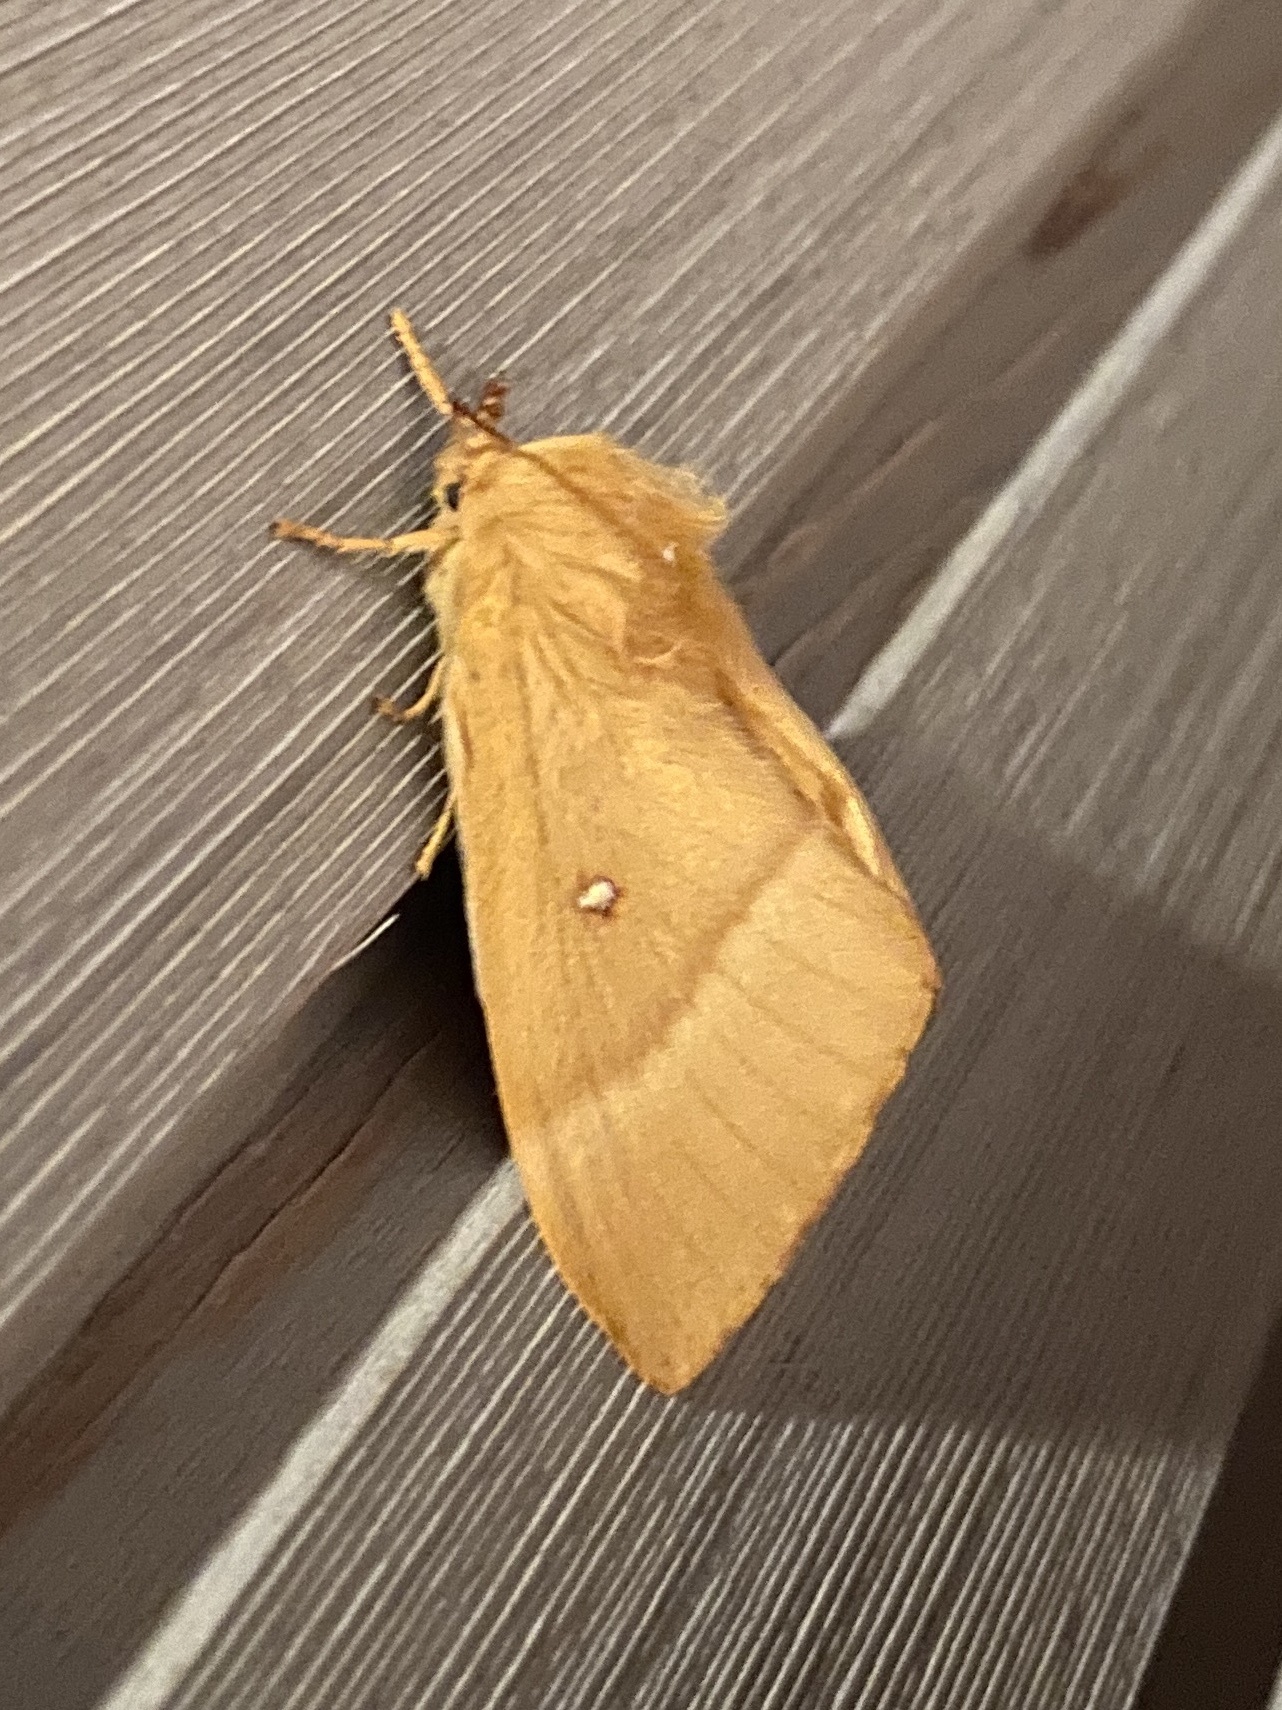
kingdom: Animalia
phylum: Arthropoda
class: Insecta
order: Lepidoptera
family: Lasiocampidae
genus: Lasiocampa
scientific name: Lasiocampa quercus
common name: Oak eggar
